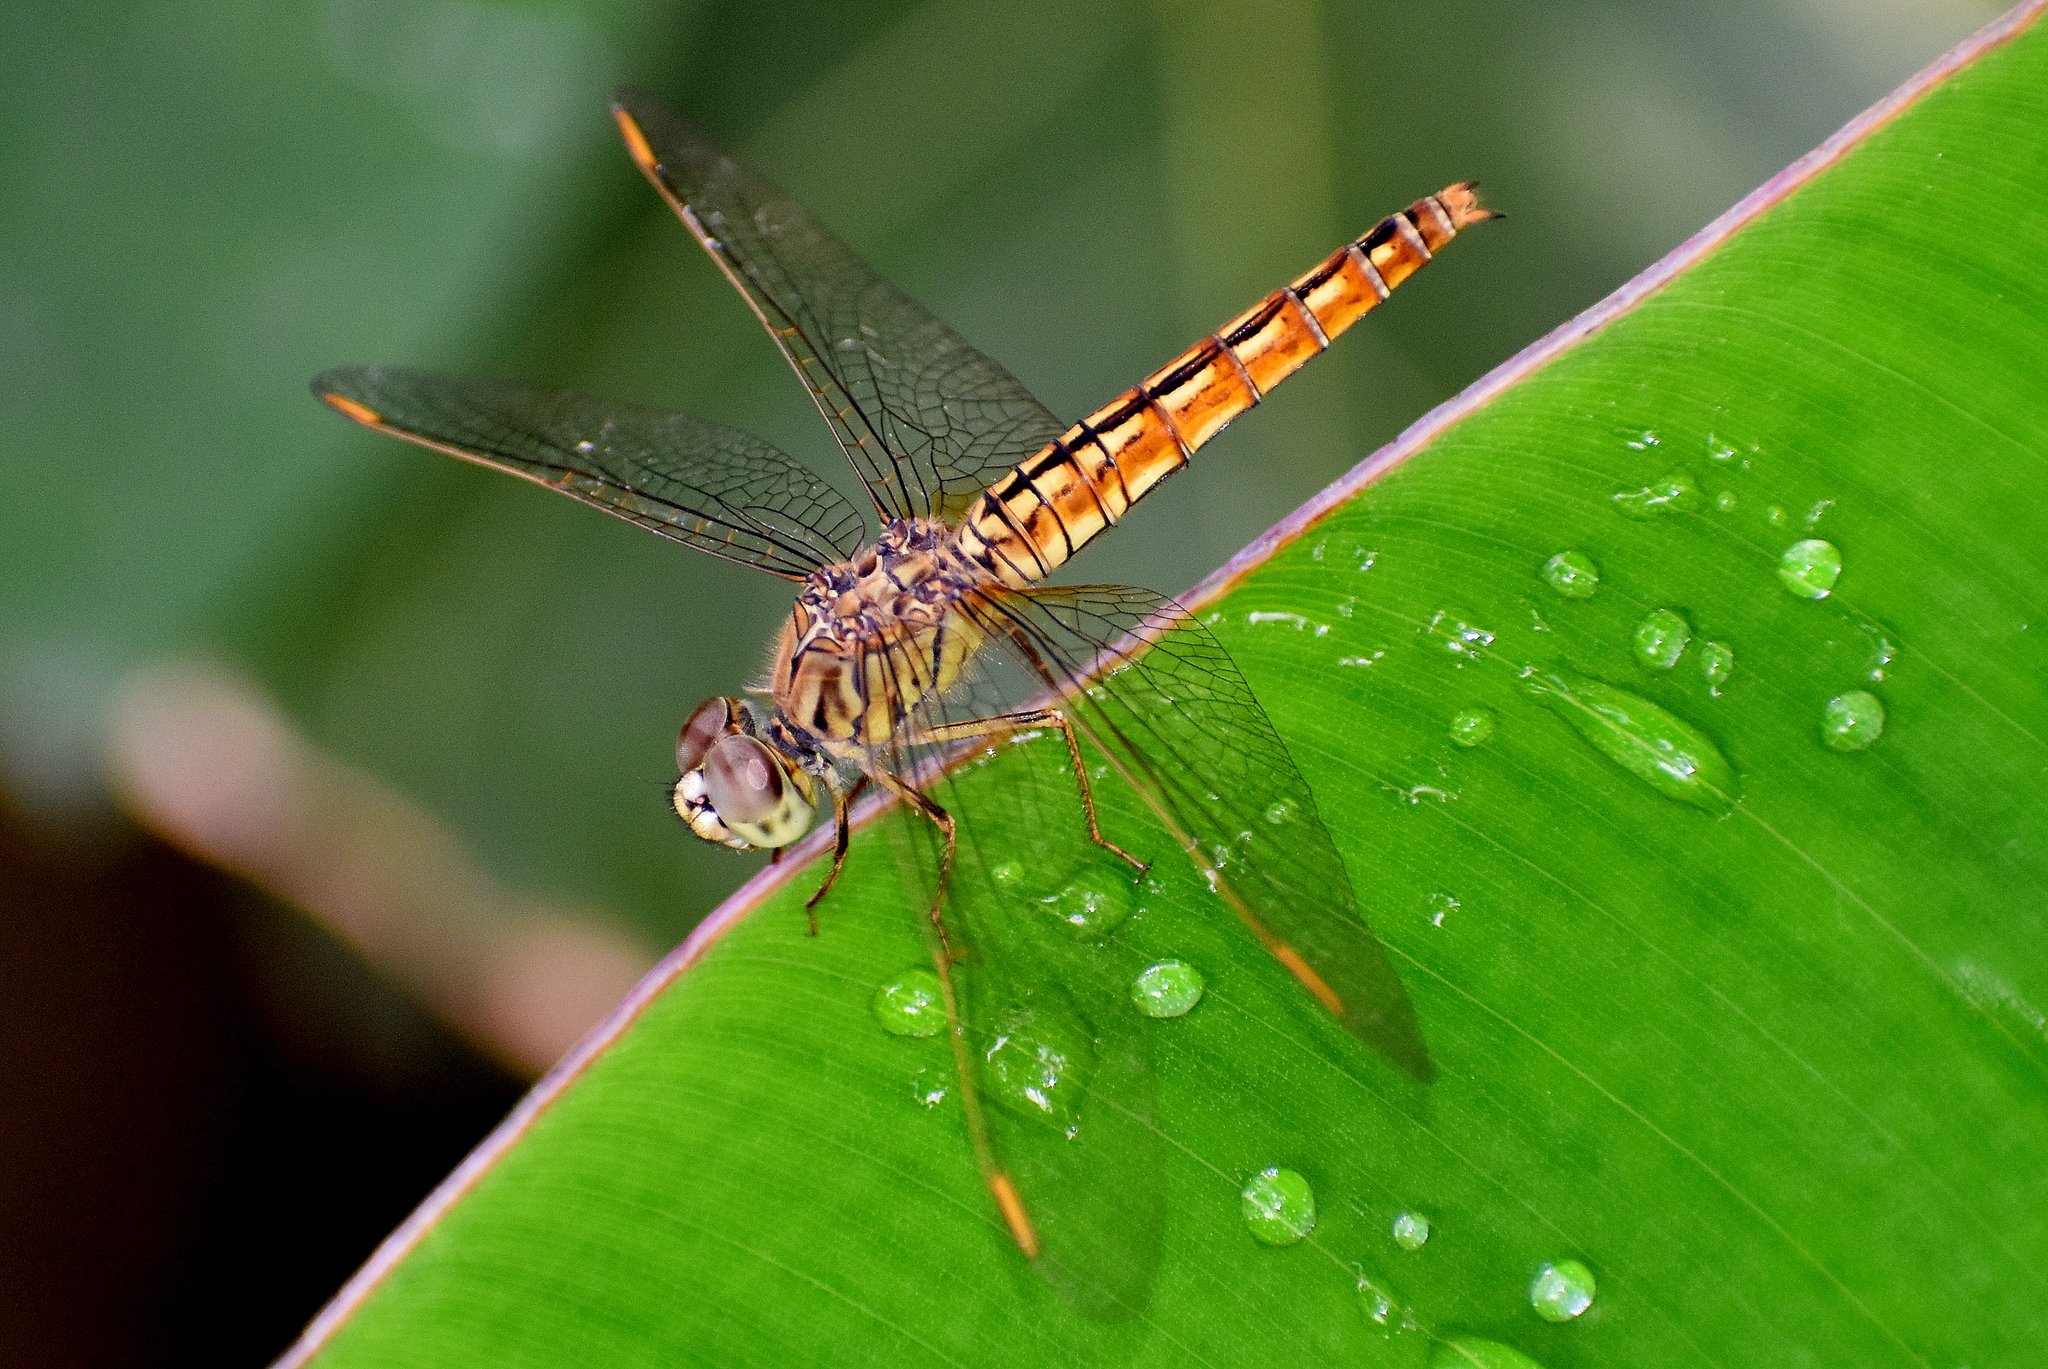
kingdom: Animalia
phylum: Arthropoda
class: Insecta
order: Odonata
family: Libellulidae
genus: Brachythemis
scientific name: Brachythemis contaminata
